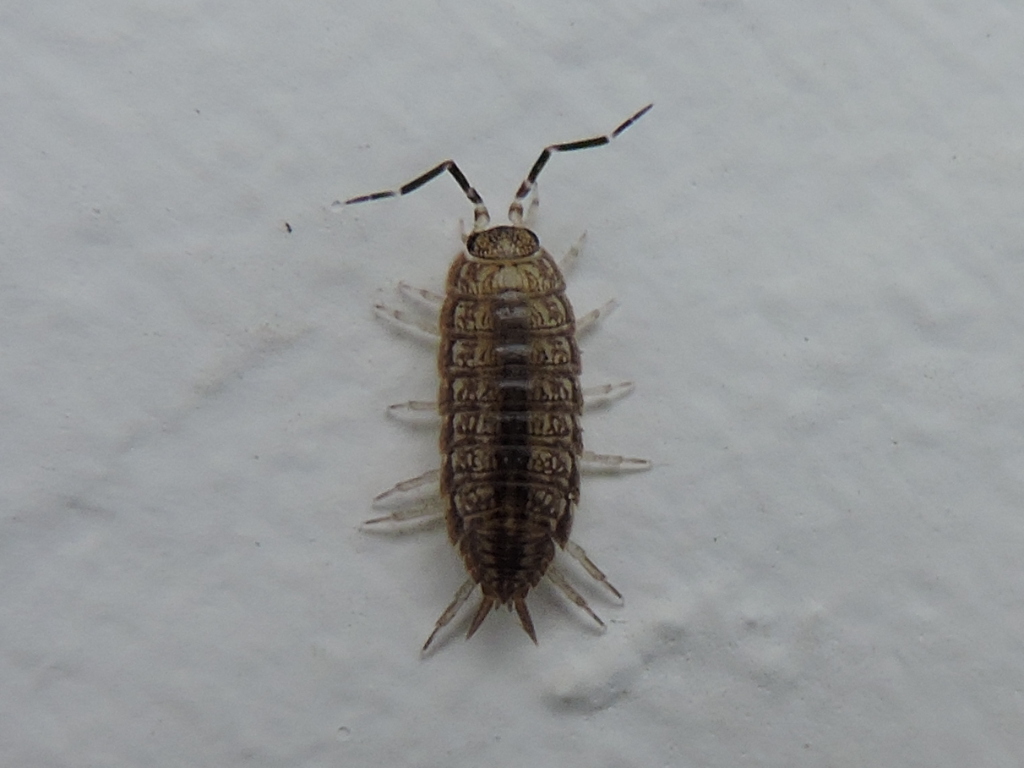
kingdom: Animalia
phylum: Arthropoda
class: Malacostraca
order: Isopoda
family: Porcellionidae
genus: Porcellionides
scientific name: Porcellionides virgatus
